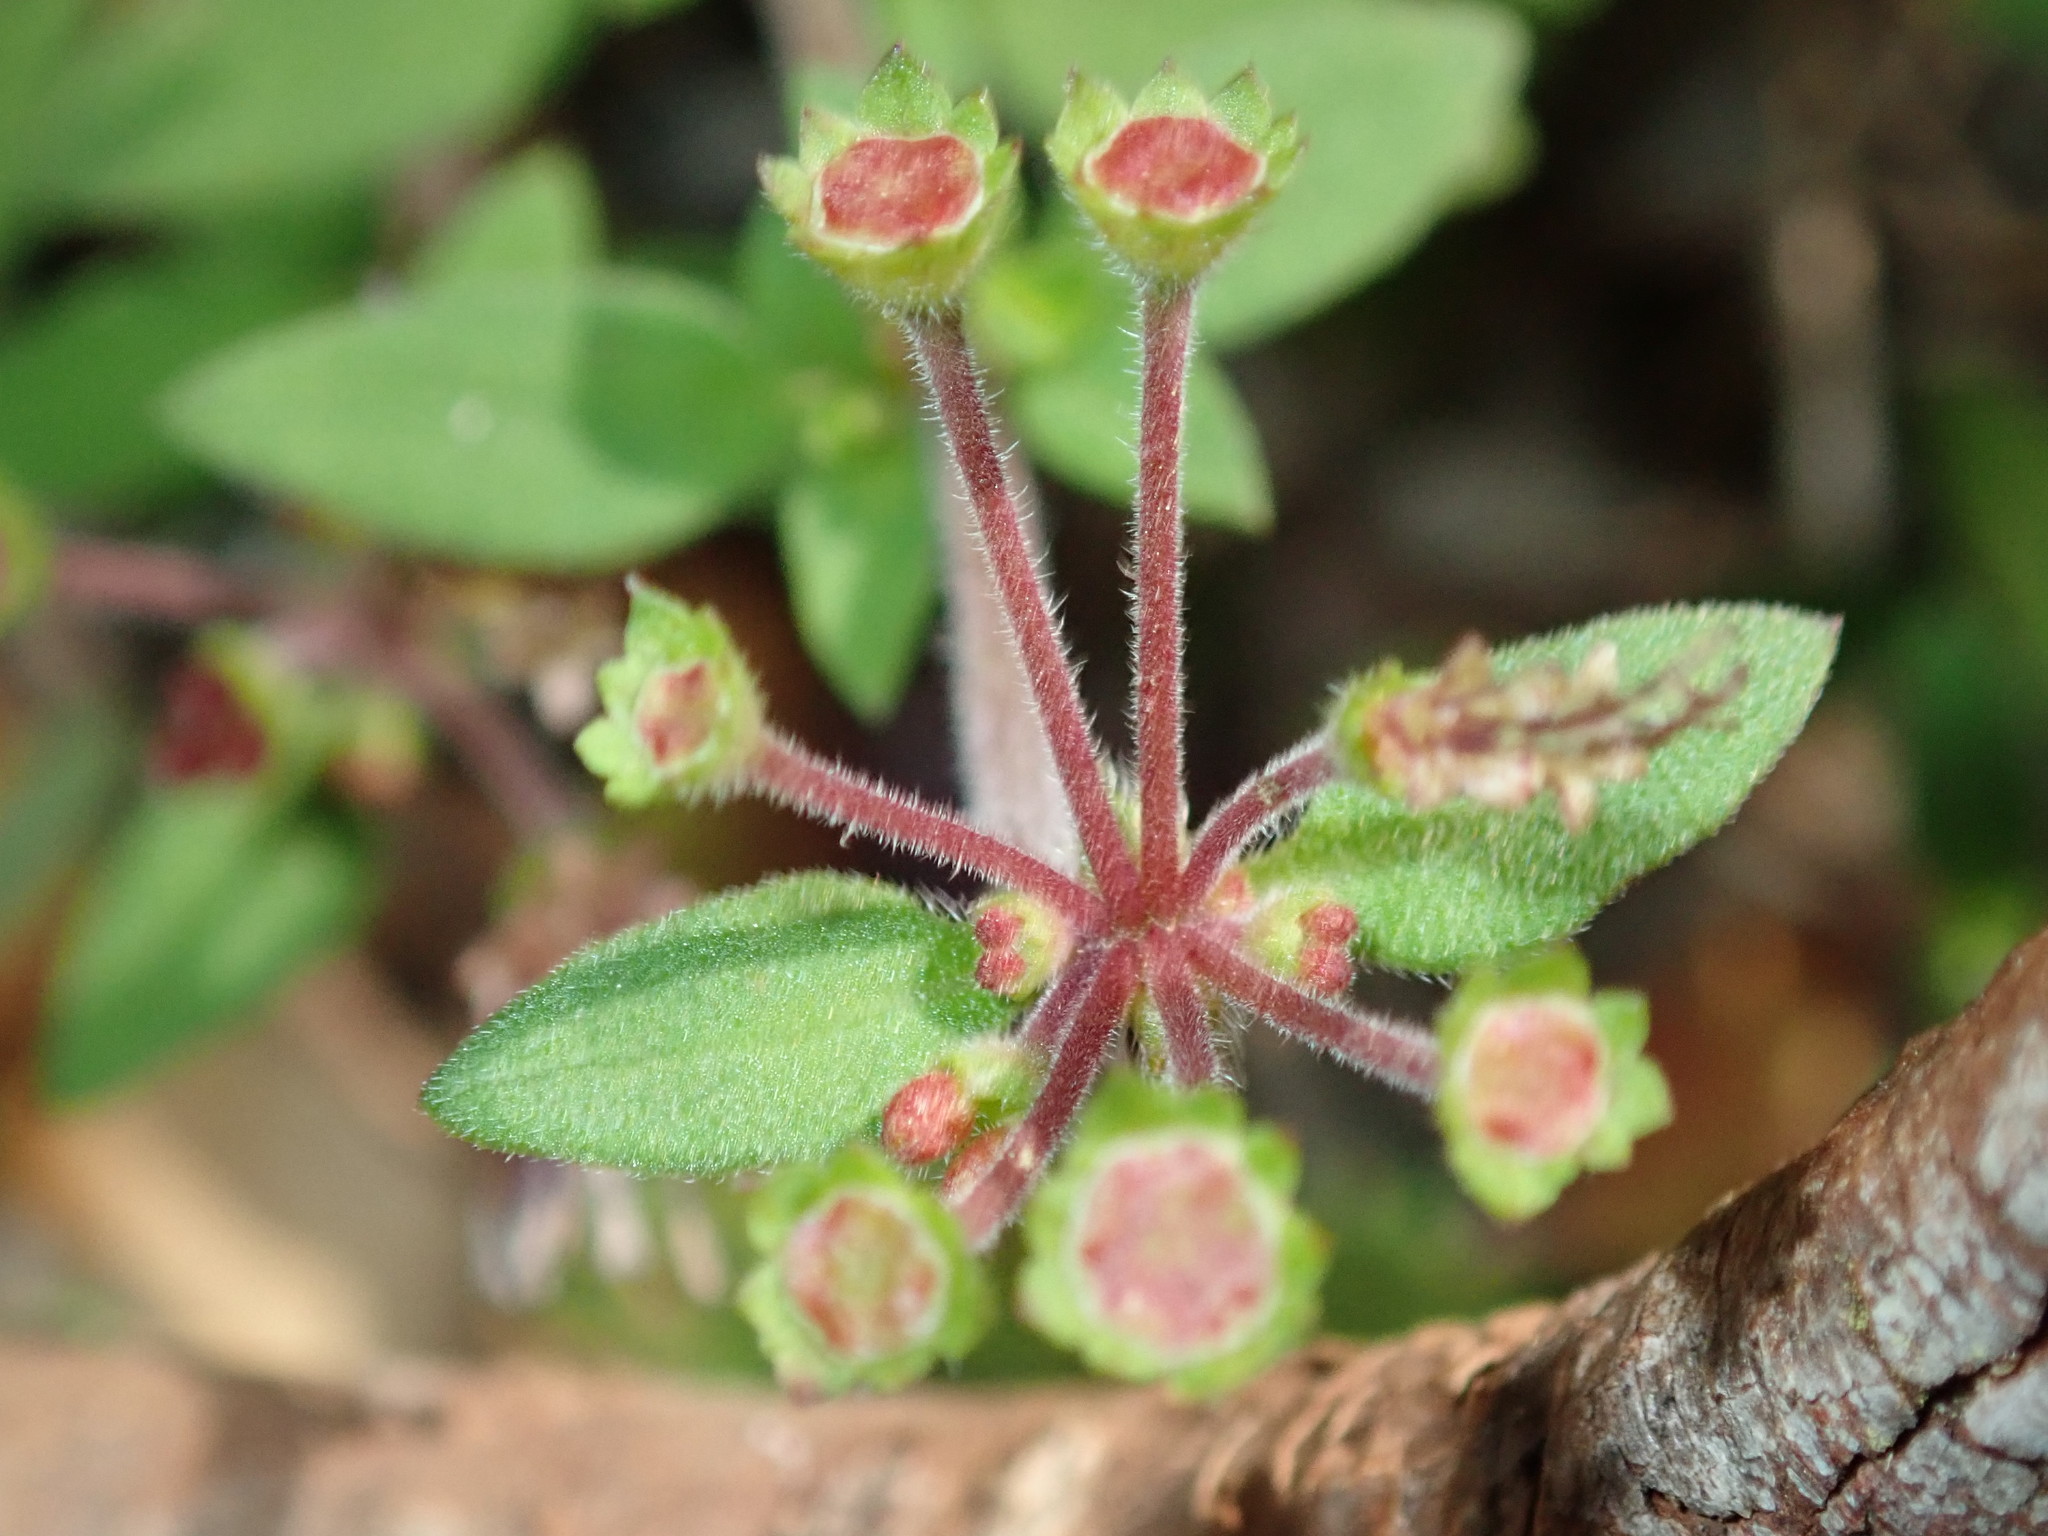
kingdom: Plantae
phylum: Tracheophyta
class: Magnoliopsida
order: Gentianales
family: Rubiaceae
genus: Pomax
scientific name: Pomax umbellata
